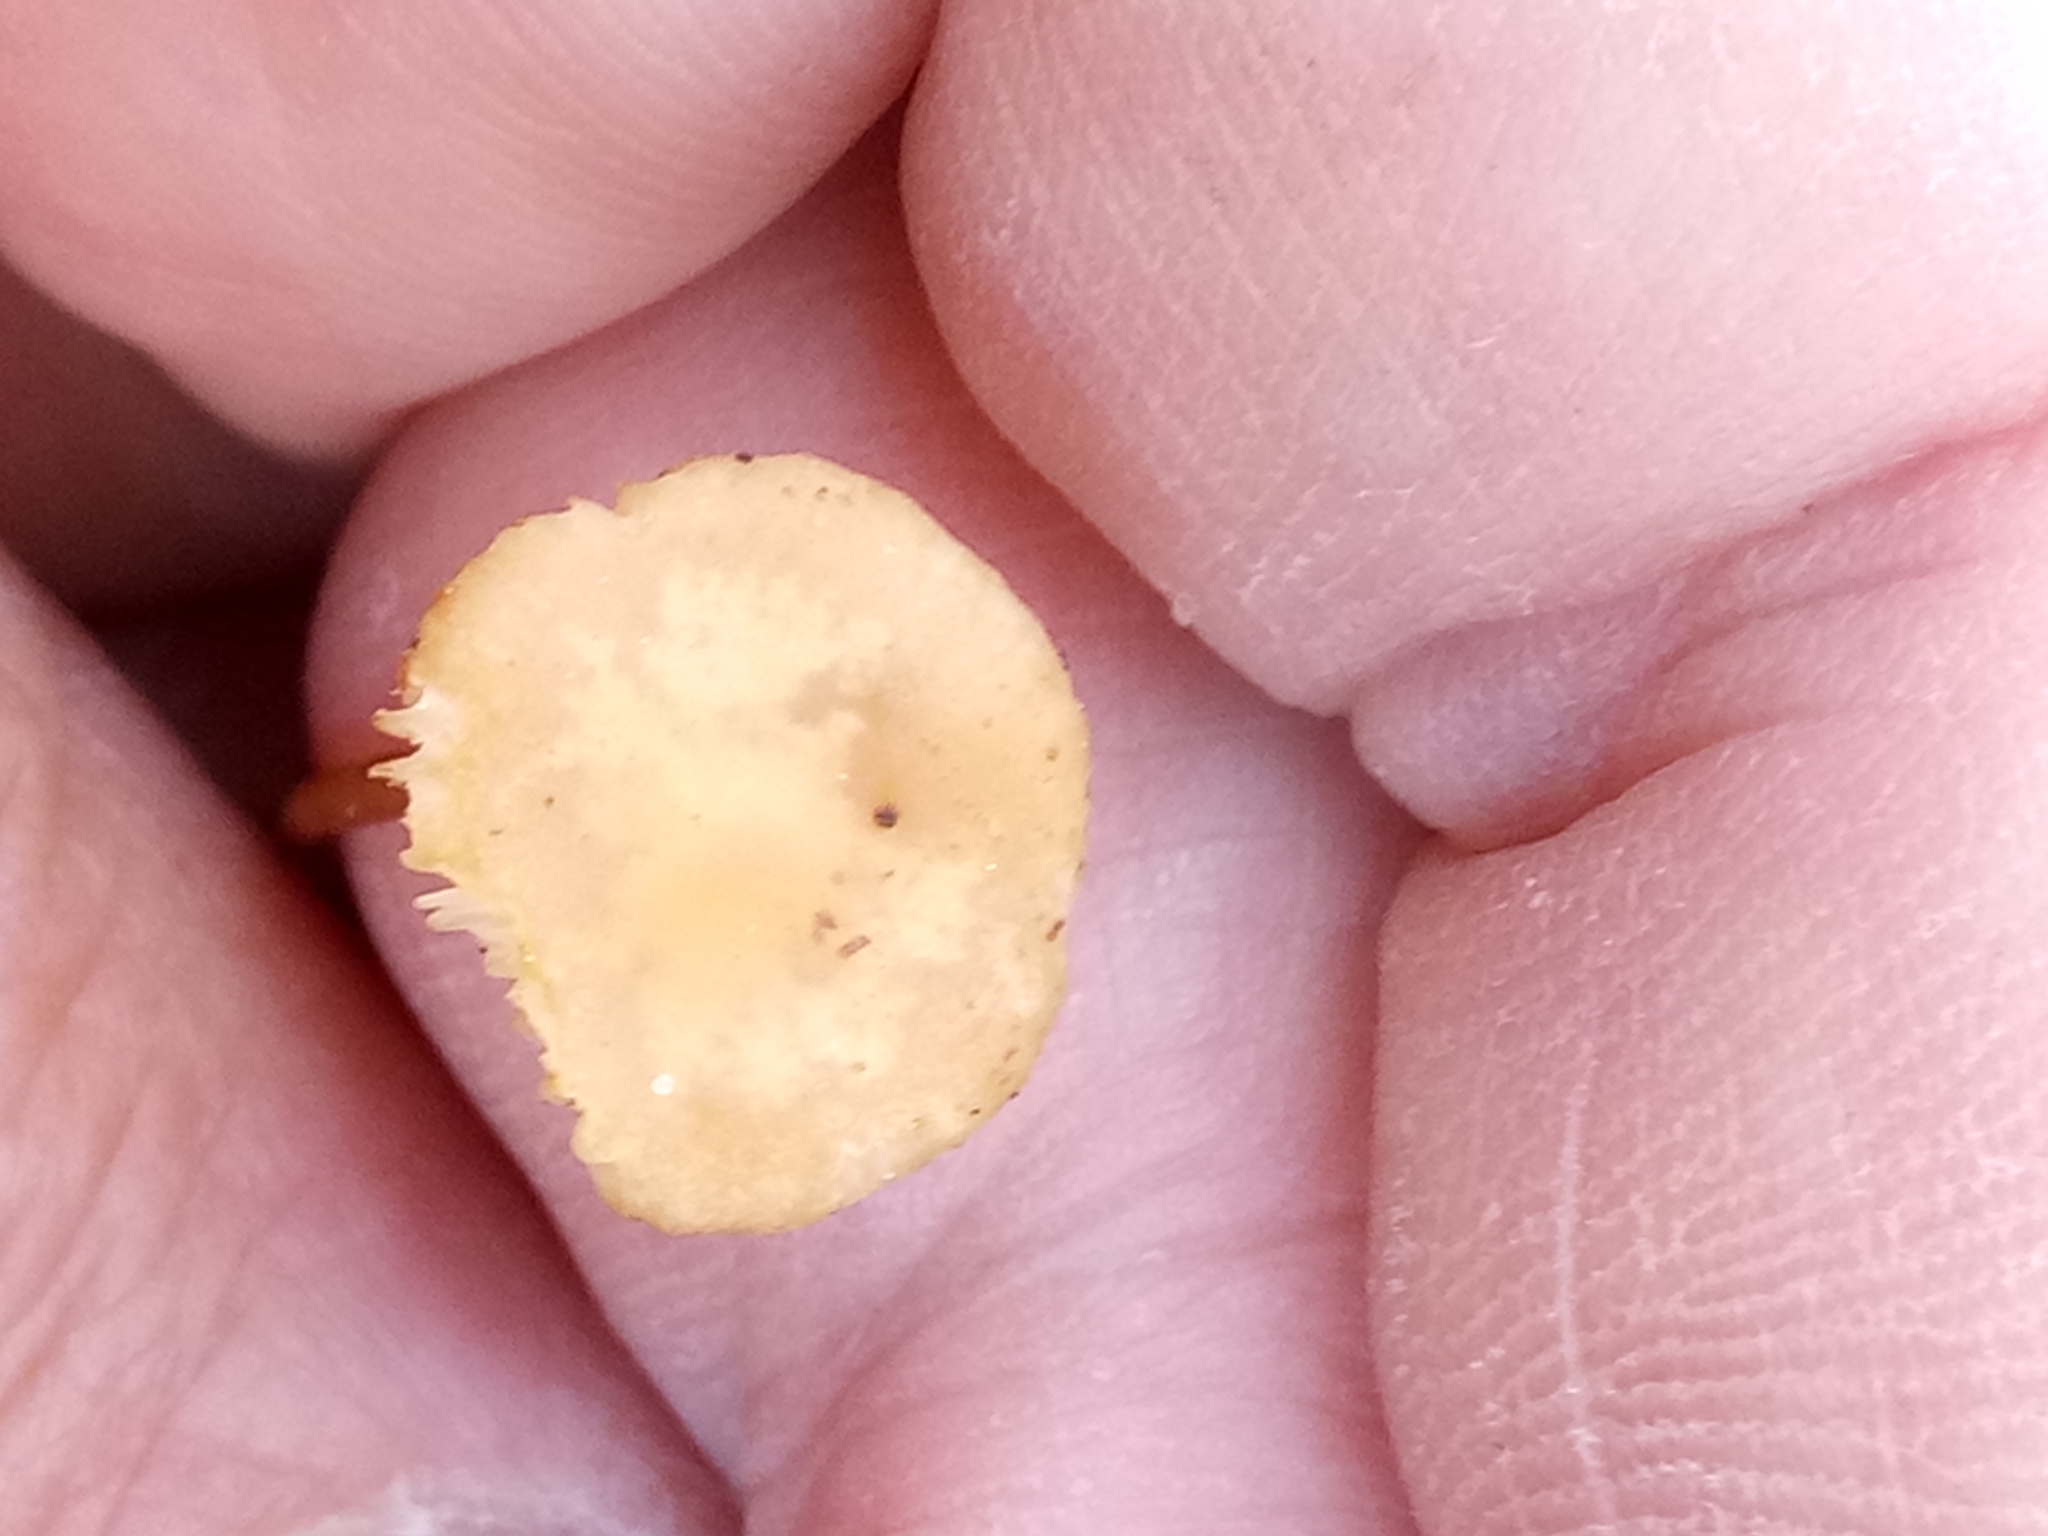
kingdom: Fungi
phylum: Basidiomycota
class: Agaricomycetes
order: Hymenochaetales
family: Rickenellaceae
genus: Rickenella
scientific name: Rickenella fibula
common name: Orange mosscap
